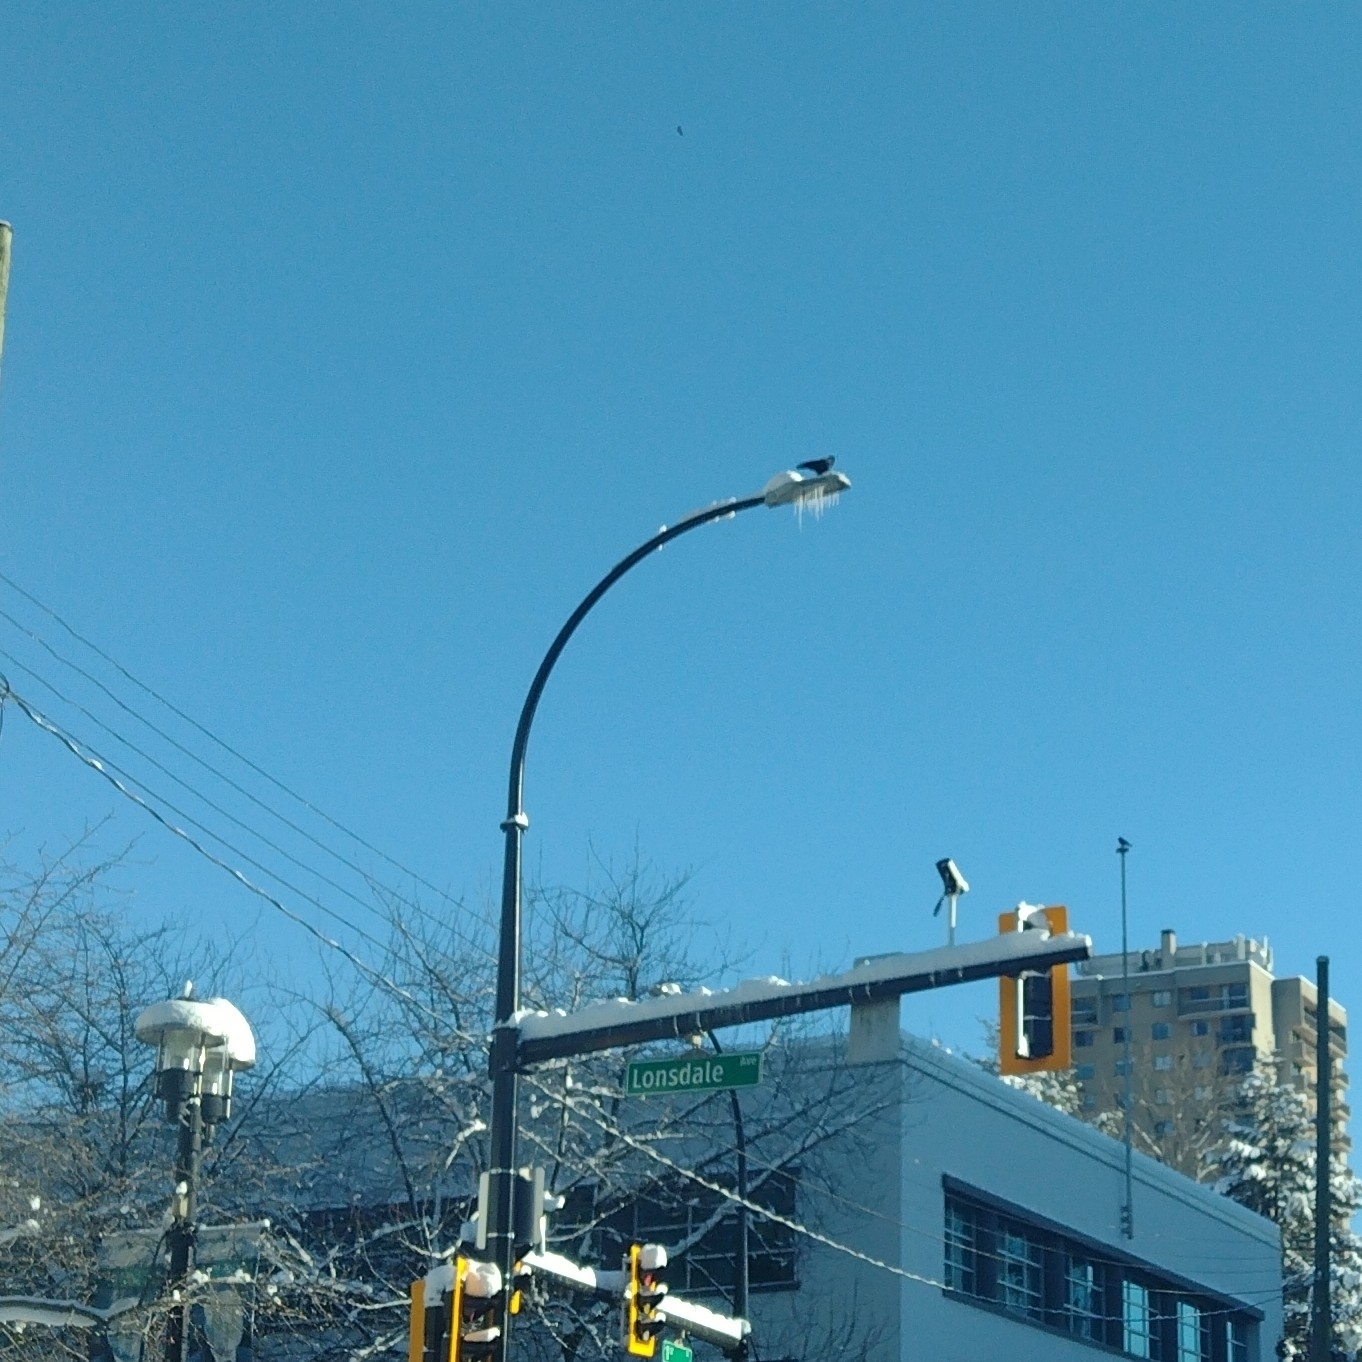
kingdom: Animalia
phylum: Chordata
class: Aves
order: Passeriformes
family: Corvidae
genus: Corvus
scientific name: Corvus brachyrhynchos
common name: American crow
